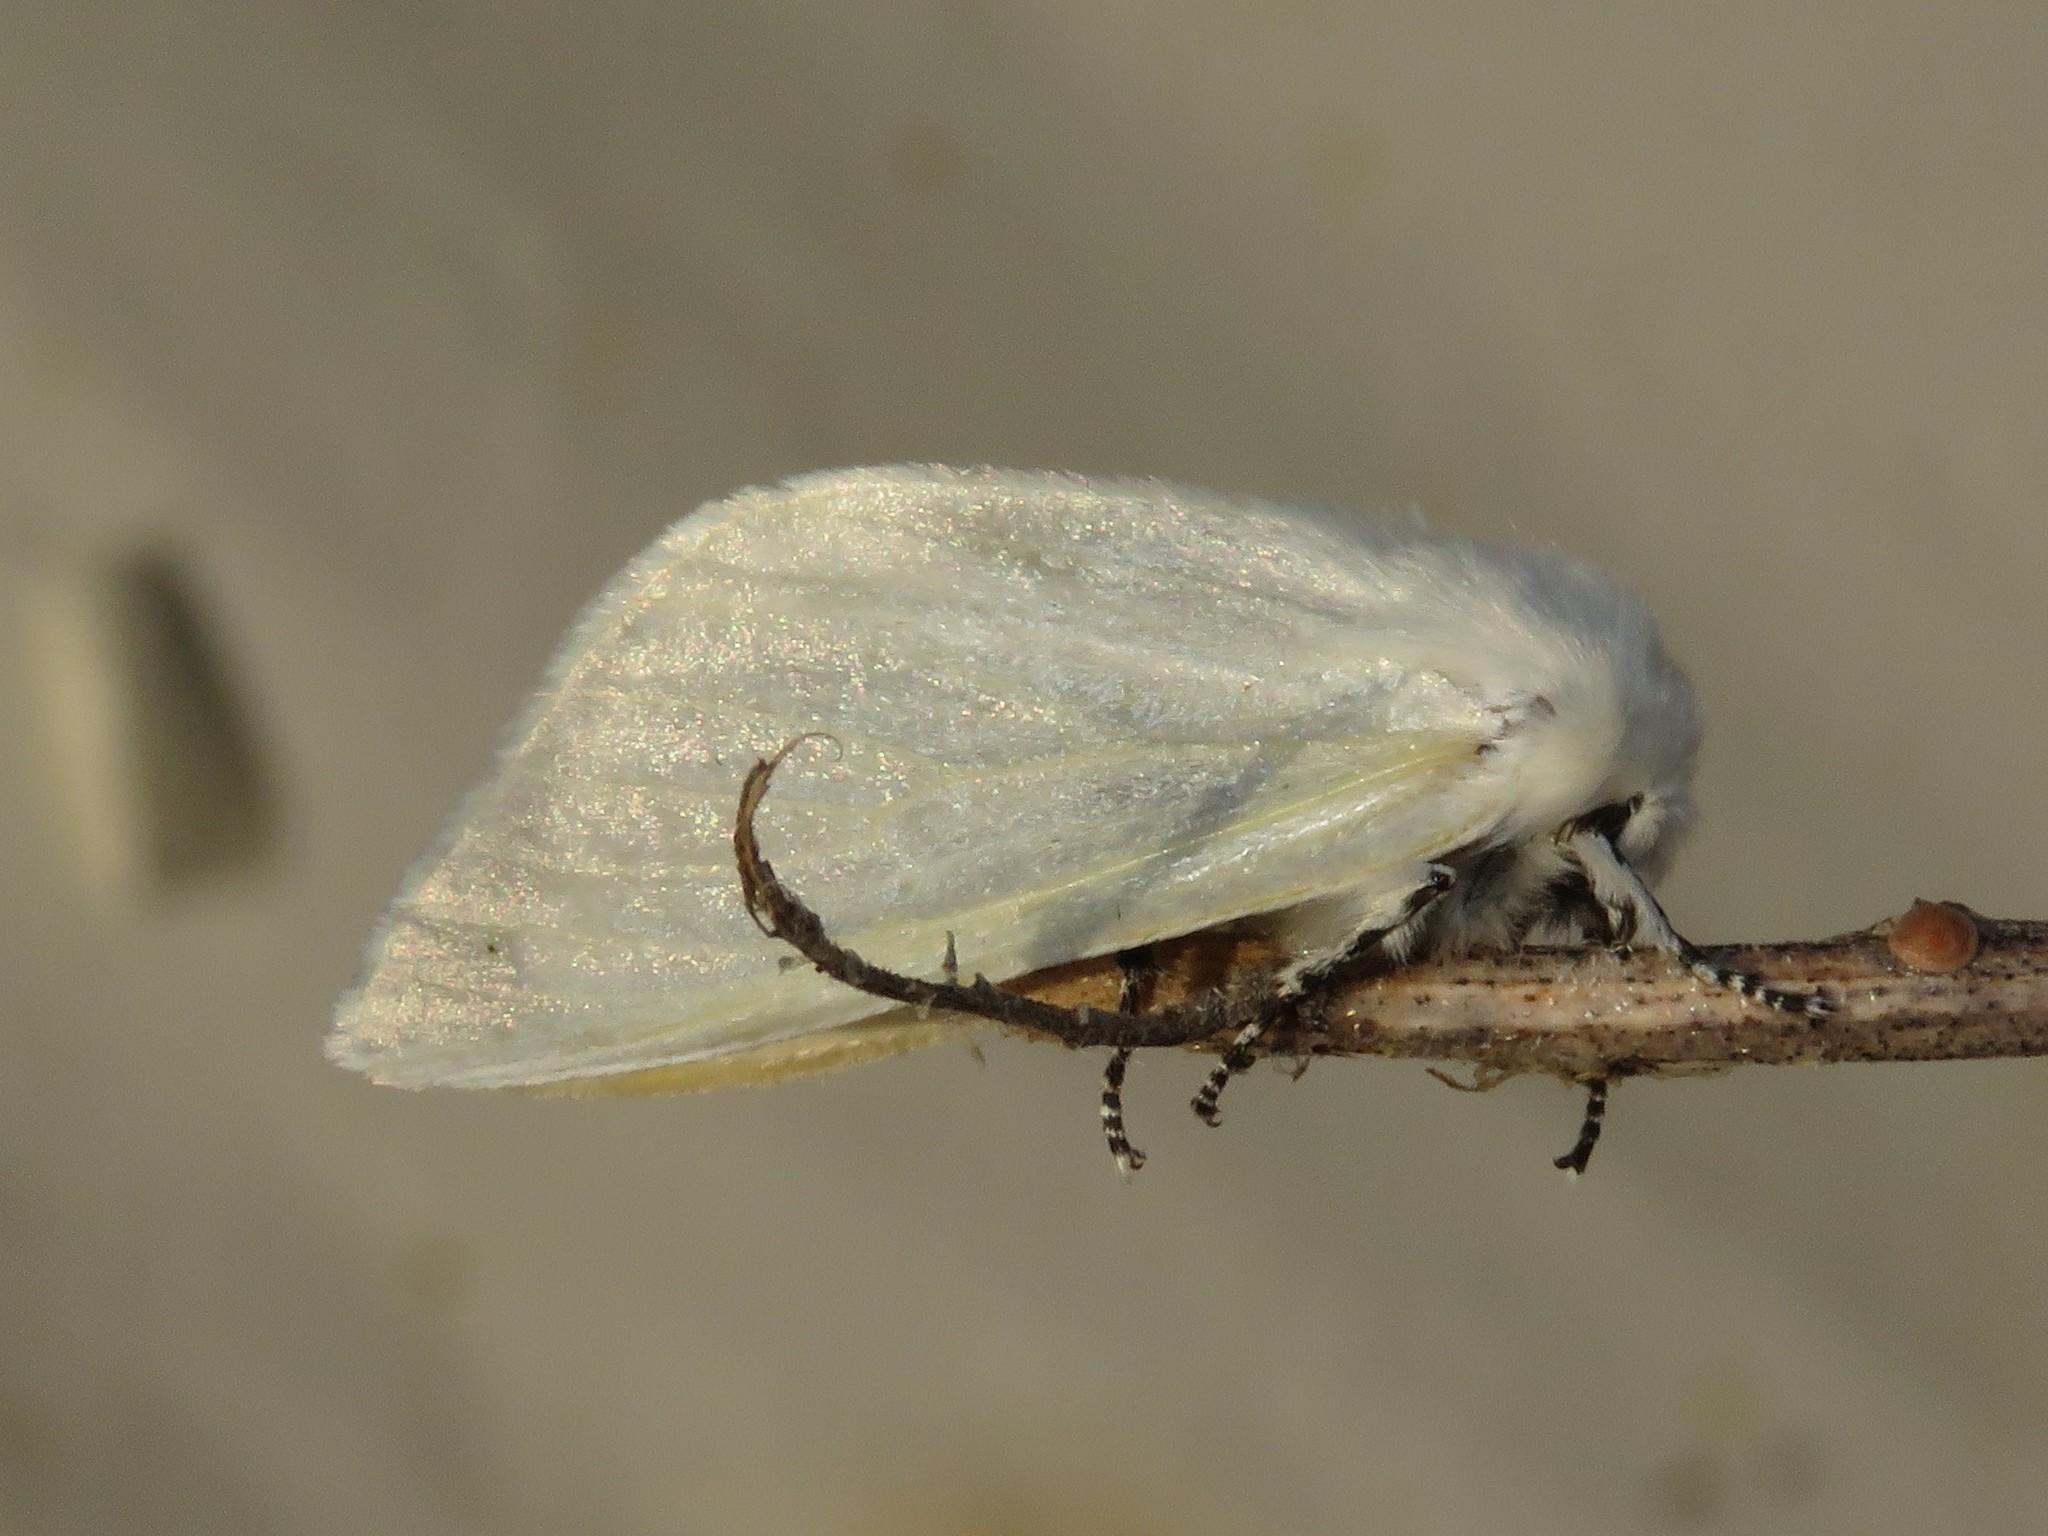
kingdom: Animalia
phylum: Arthropoda
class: Insecta
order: Lepidoptera
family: Erebidae
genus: Leucoma
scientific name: Leucoma salicis
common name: White satin moth
